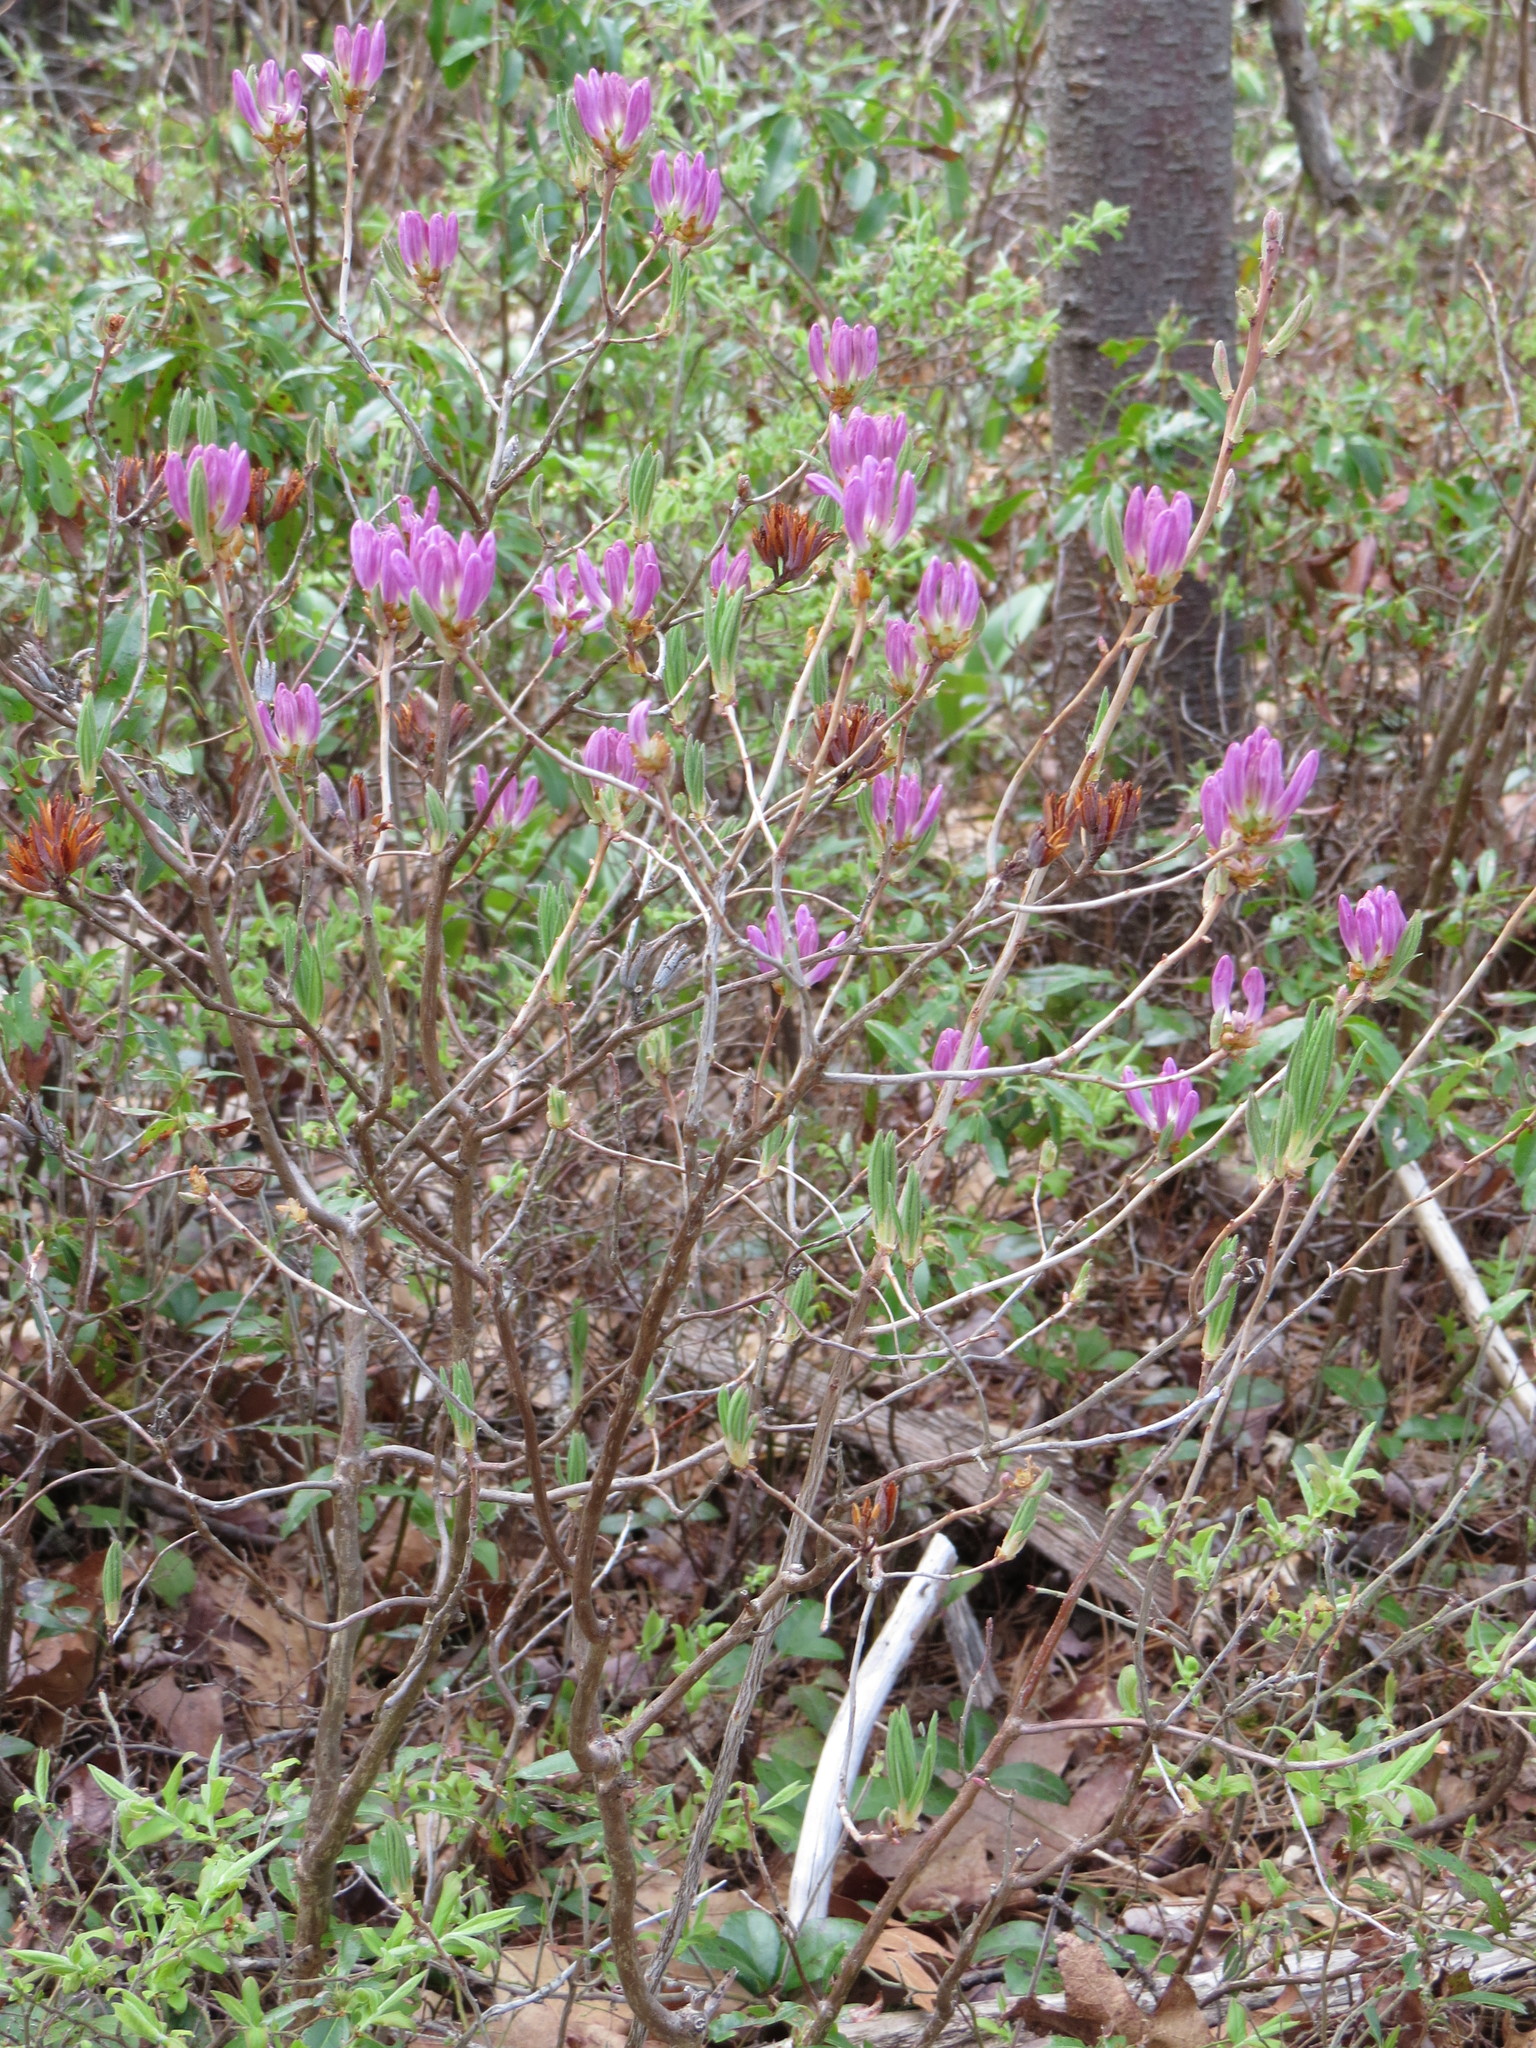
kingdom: Plantae
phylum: Tracheophyta
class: Magnoliopsida
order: Ericales
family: Ericaceae
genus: Rhododendron
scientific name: Rhododendron canadense
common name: Rhodora
